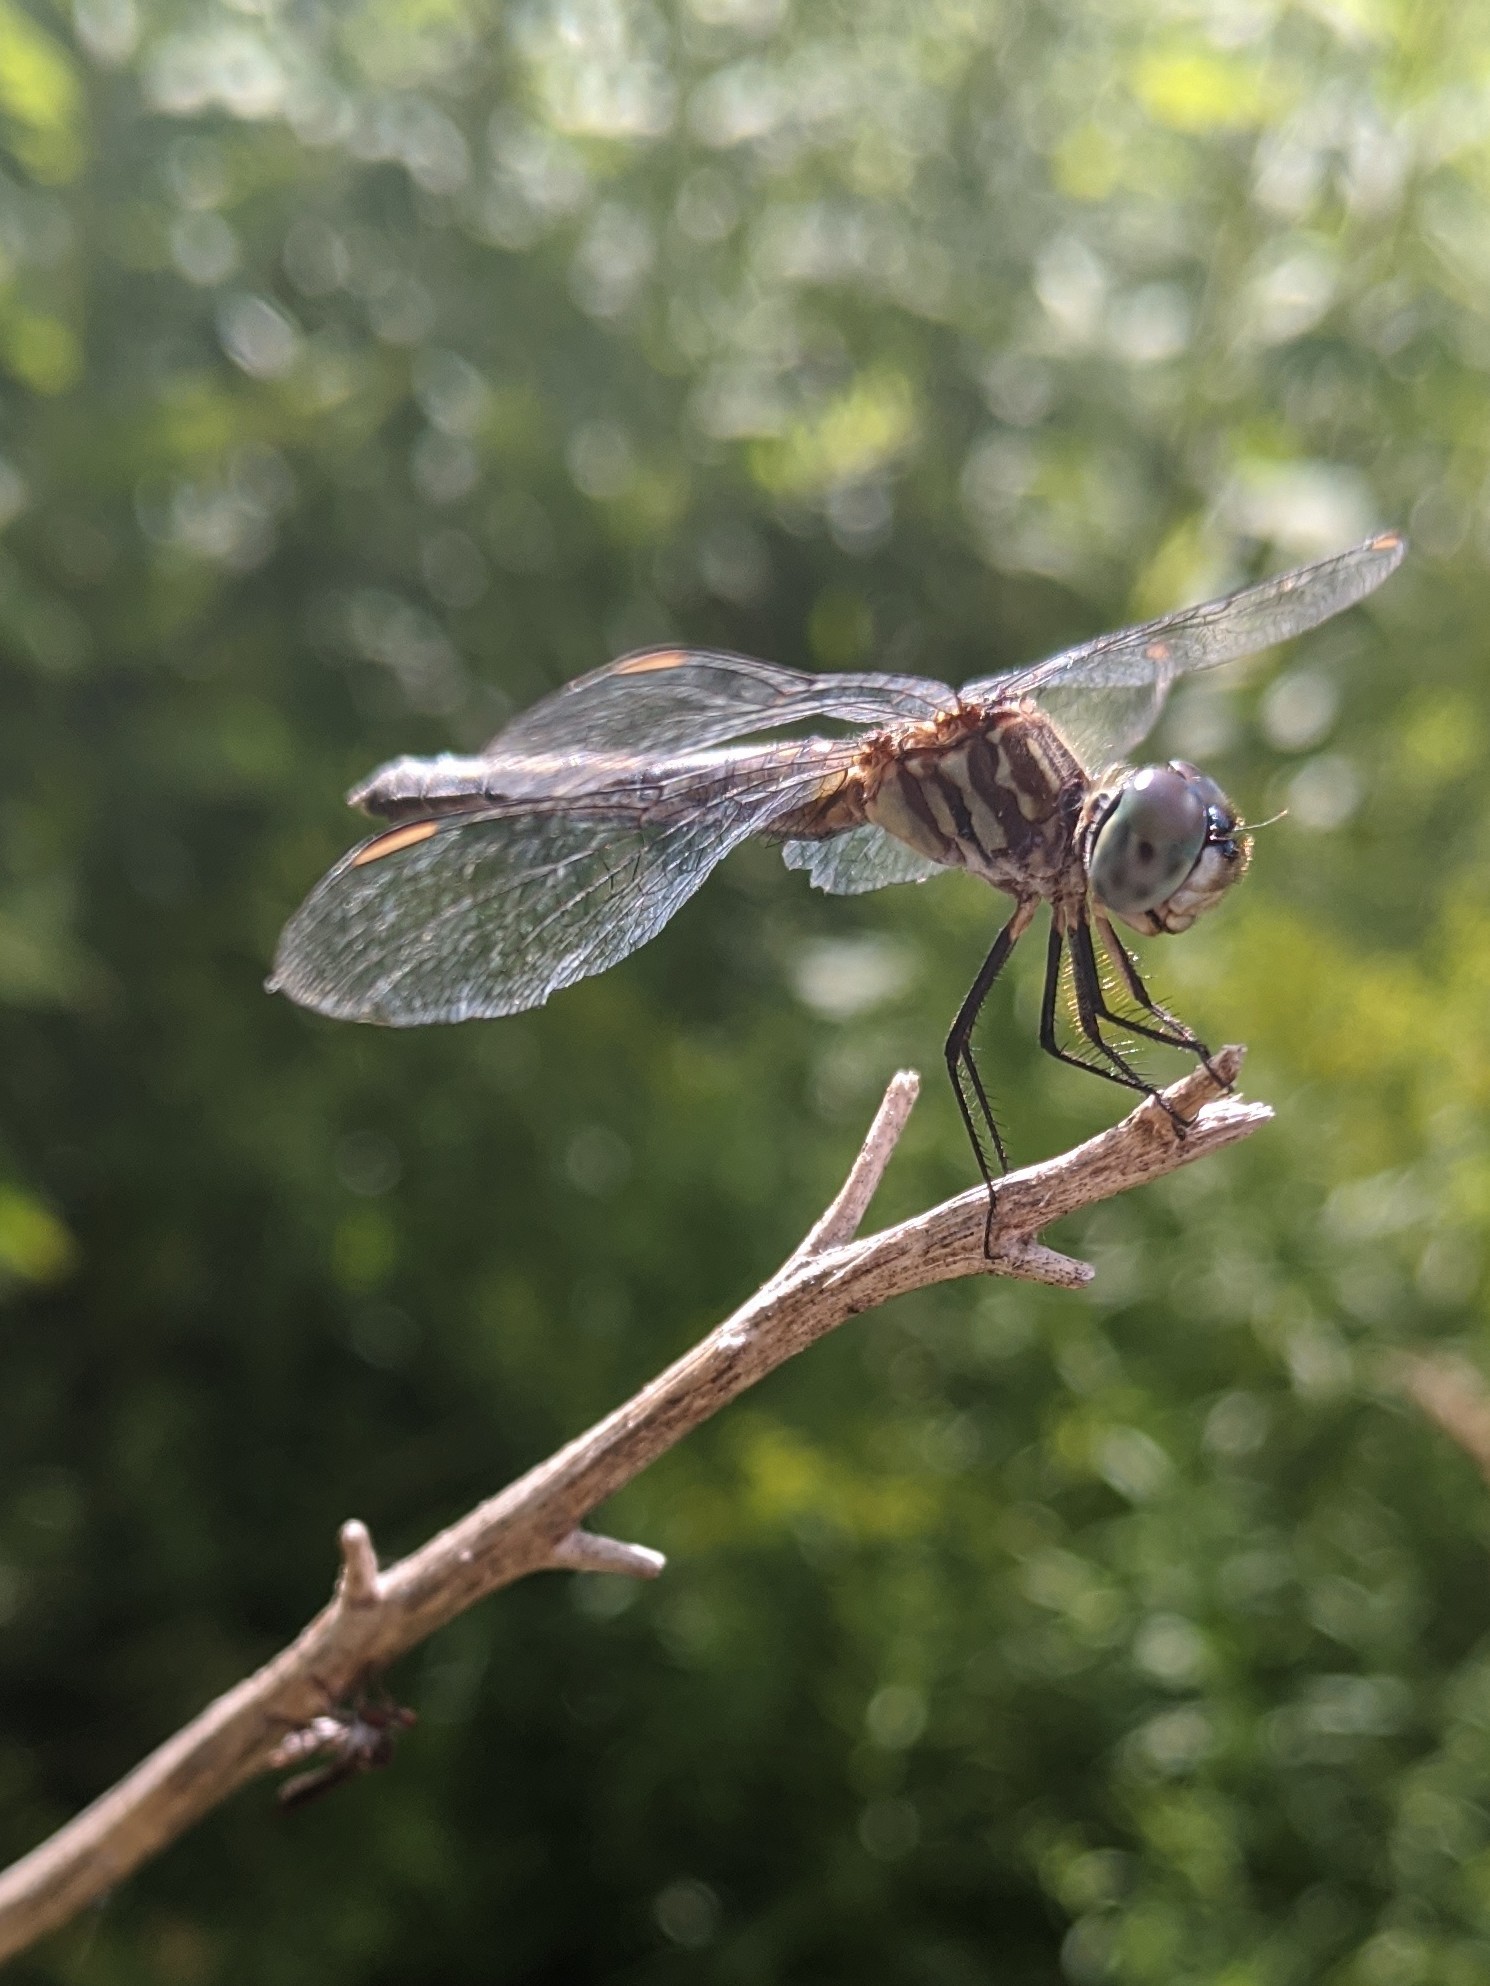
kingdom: Animalia
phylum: Arthropoda
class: Insecta
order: Odonata
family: Libellulidae
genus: Pachydiplax
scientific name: Pachydiplax longipennis
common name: Blue dasher
